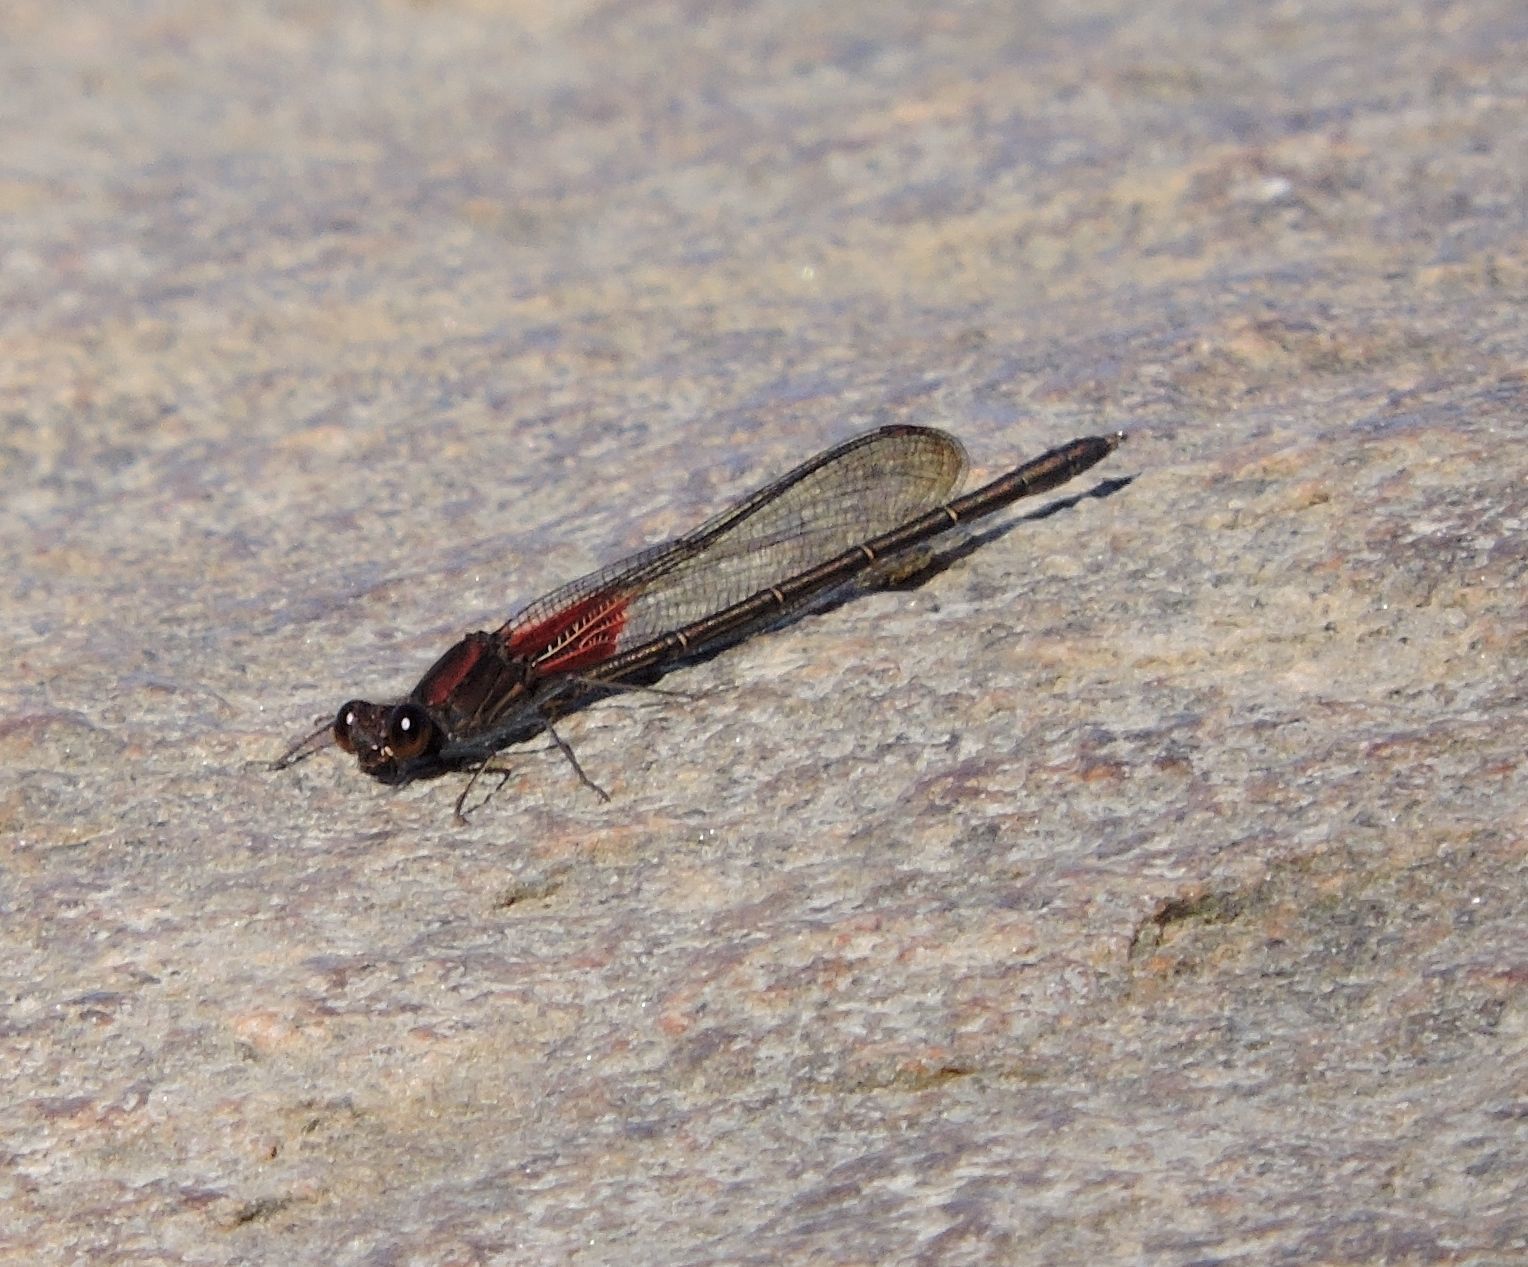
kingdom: Animalia
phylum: Arthropoda
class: Insecta
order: Odonata
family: Calopterygidae
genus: Hetaerina
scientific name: Hetaerina americana
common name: American rubyspot
